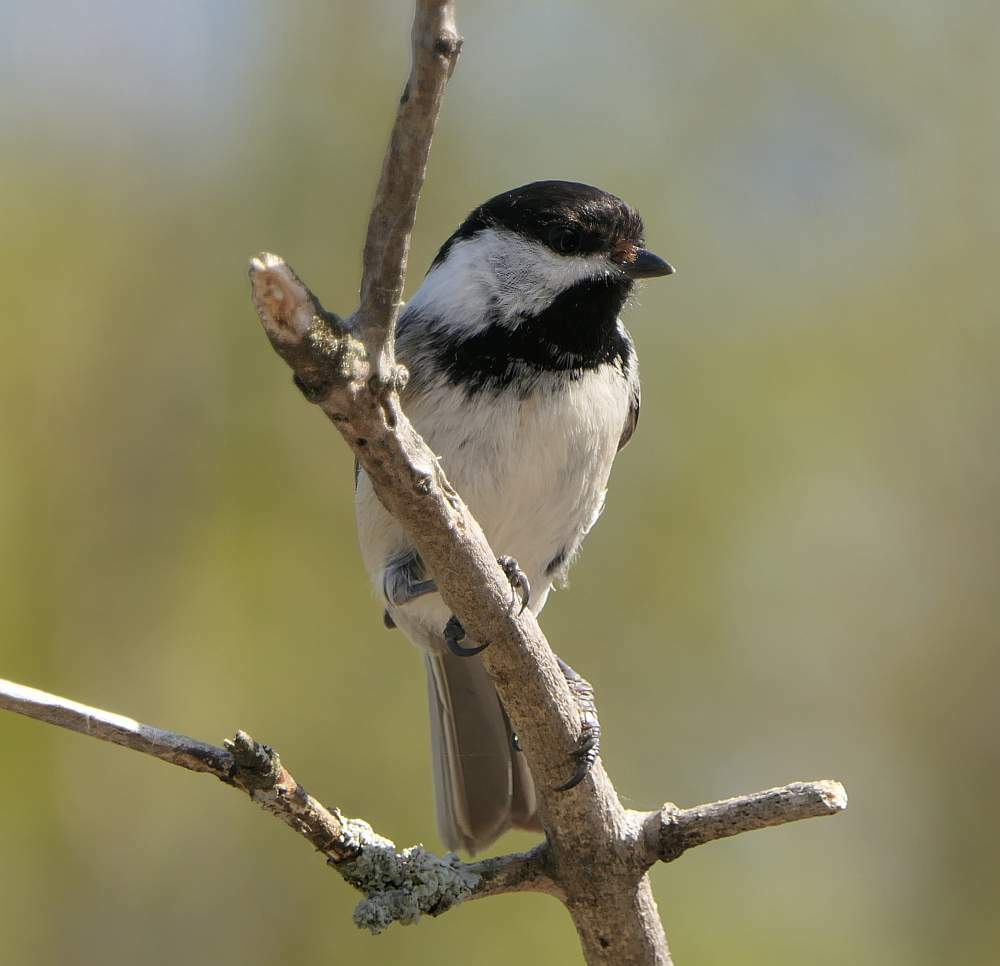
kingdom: Animalia
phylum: Chordata
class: Aves
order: Passeriformes
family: Paridae
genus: Poecile
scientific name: Poecile atricapillus
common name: Black-capped chickadee
